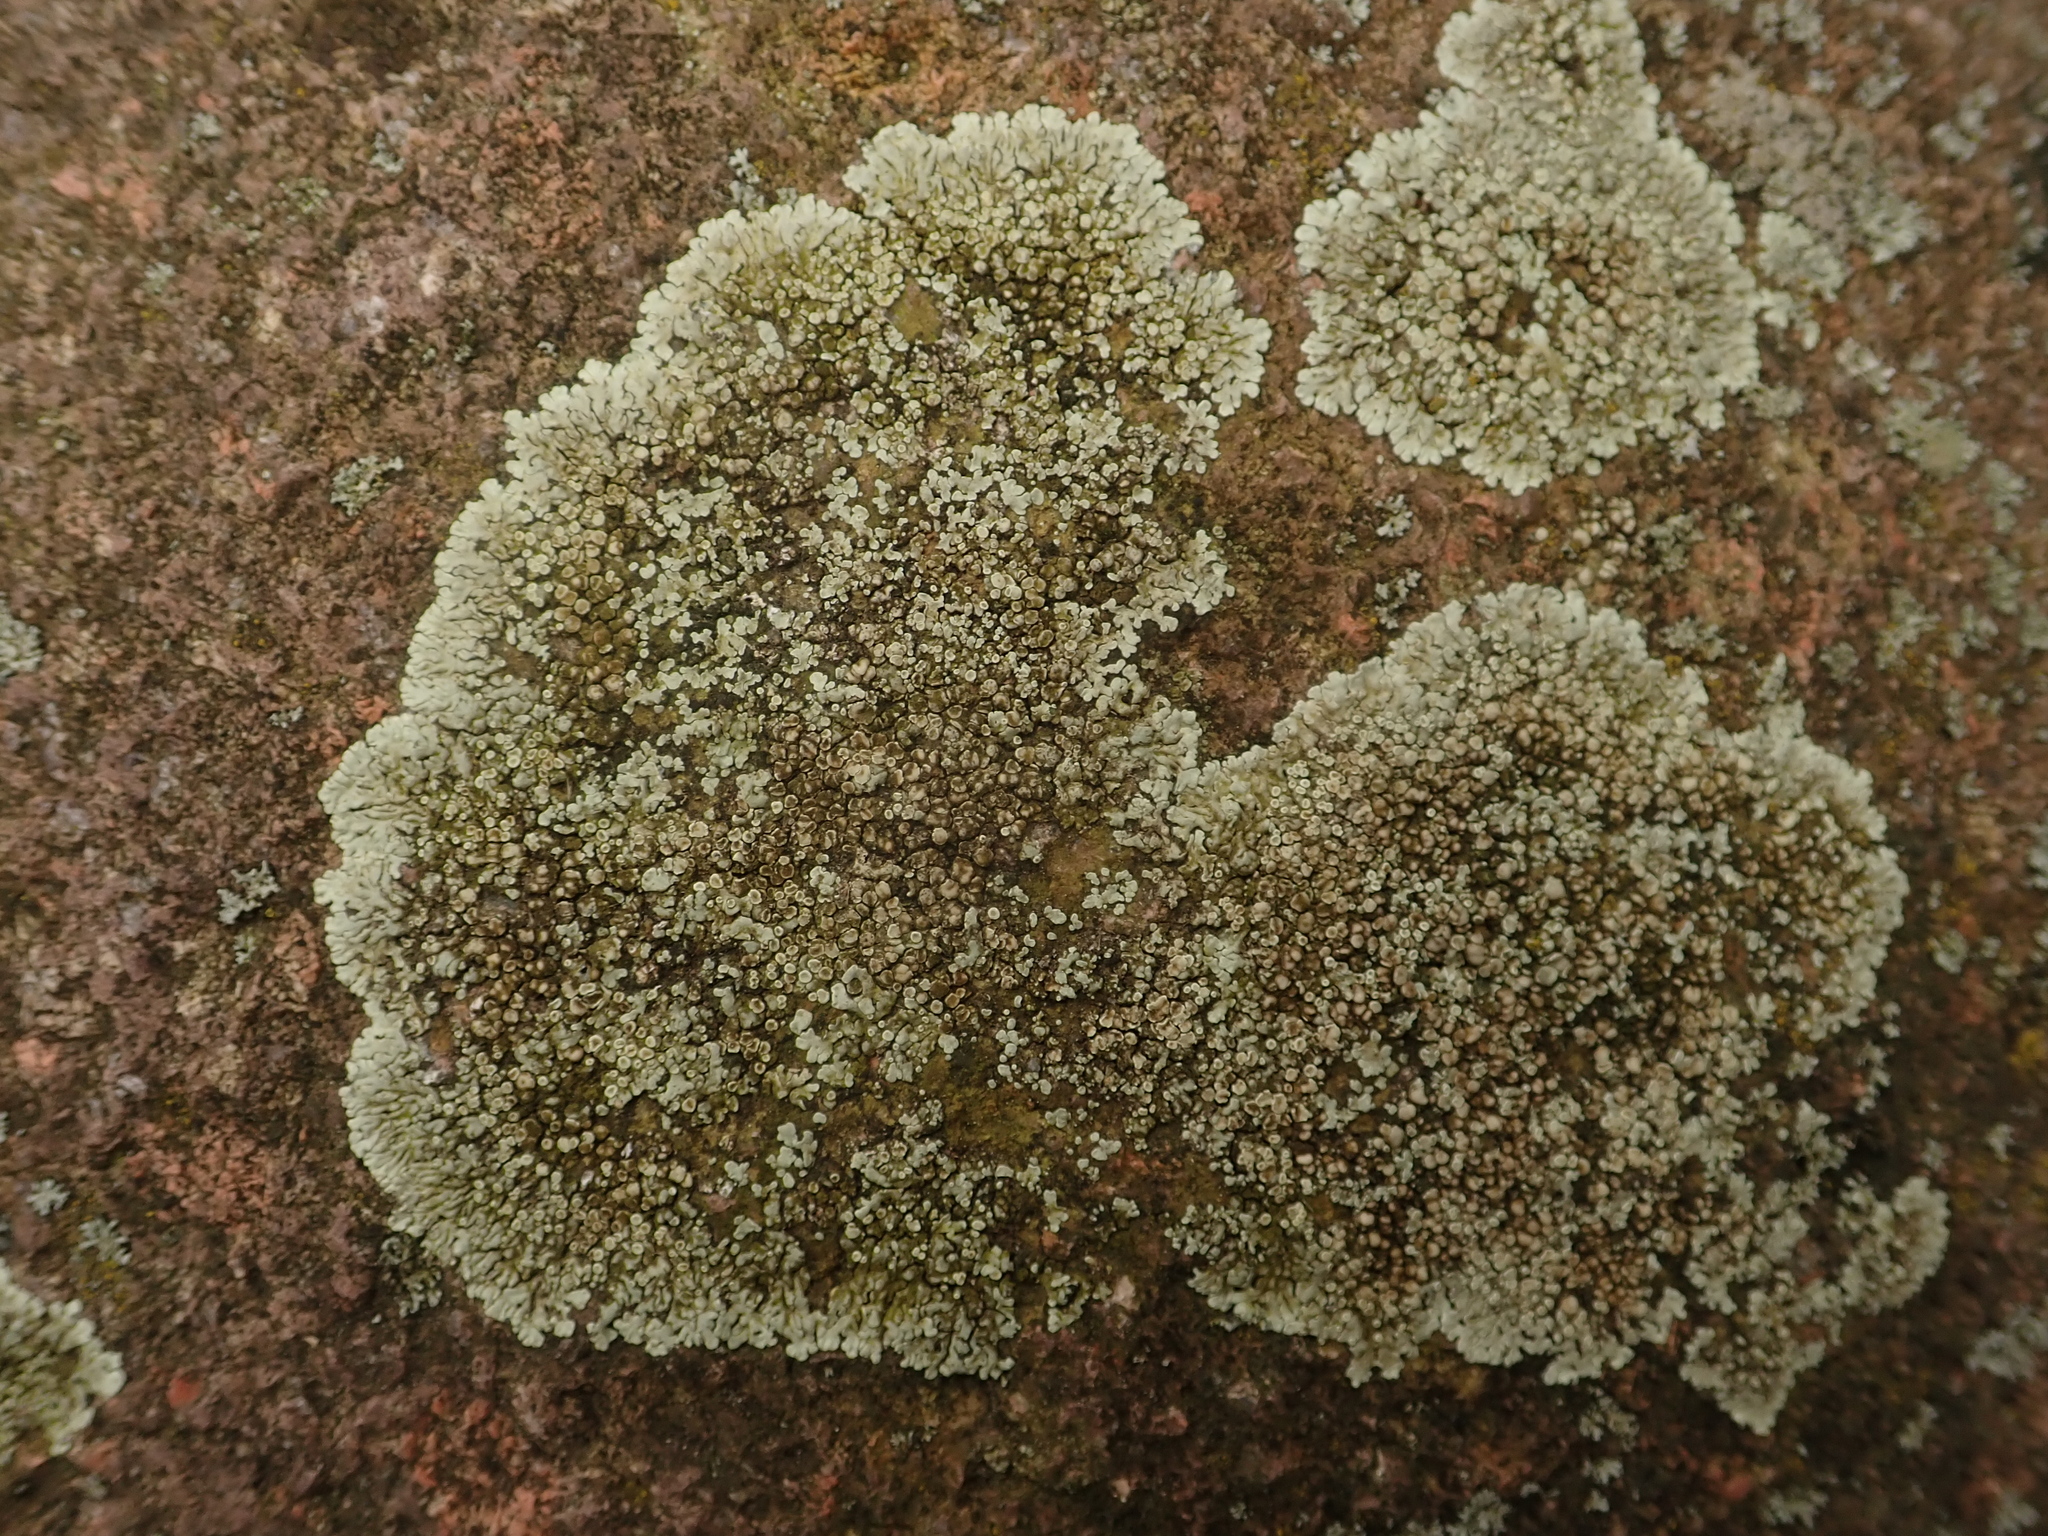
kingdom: Fungi
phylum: Ascomycota
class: Lecanoromycetes
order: Lecanorales
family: Lecanoraceae
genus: Protoparmeliopsis
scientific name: Protoparmeliopsis muralis
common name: Stonewall rim lichen
